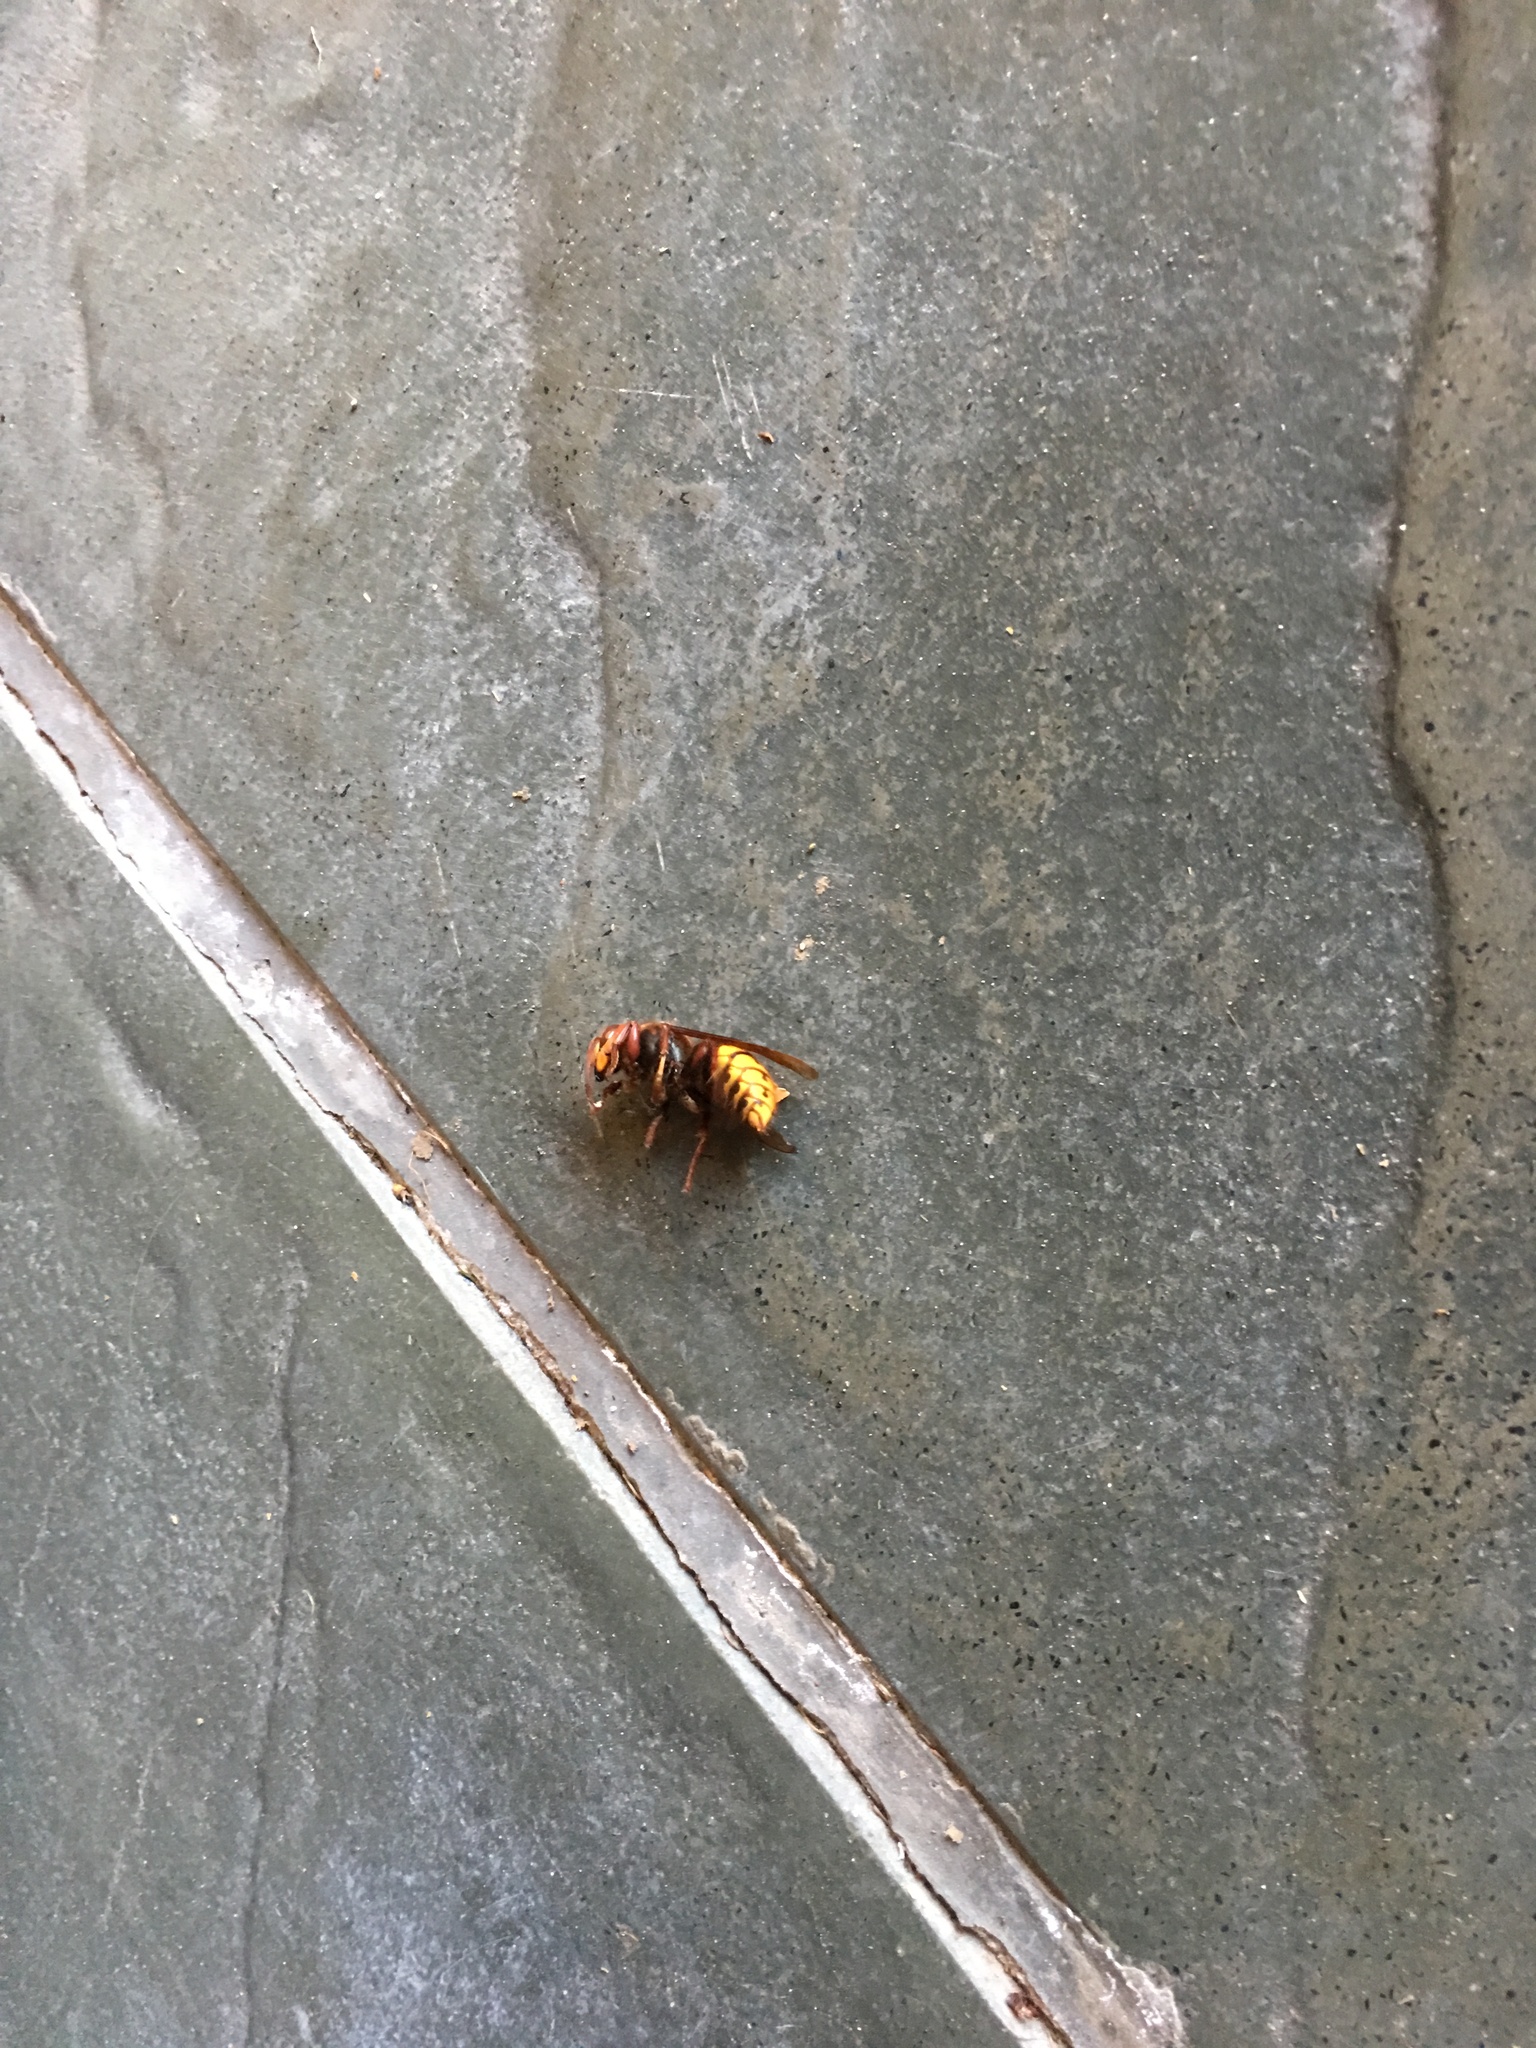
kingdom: Animalia
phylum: Arthropoda
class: Insecta
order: Hymenoptera
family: Vespidae
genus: Vespa
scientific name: Vespa crabro
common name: Hornet
